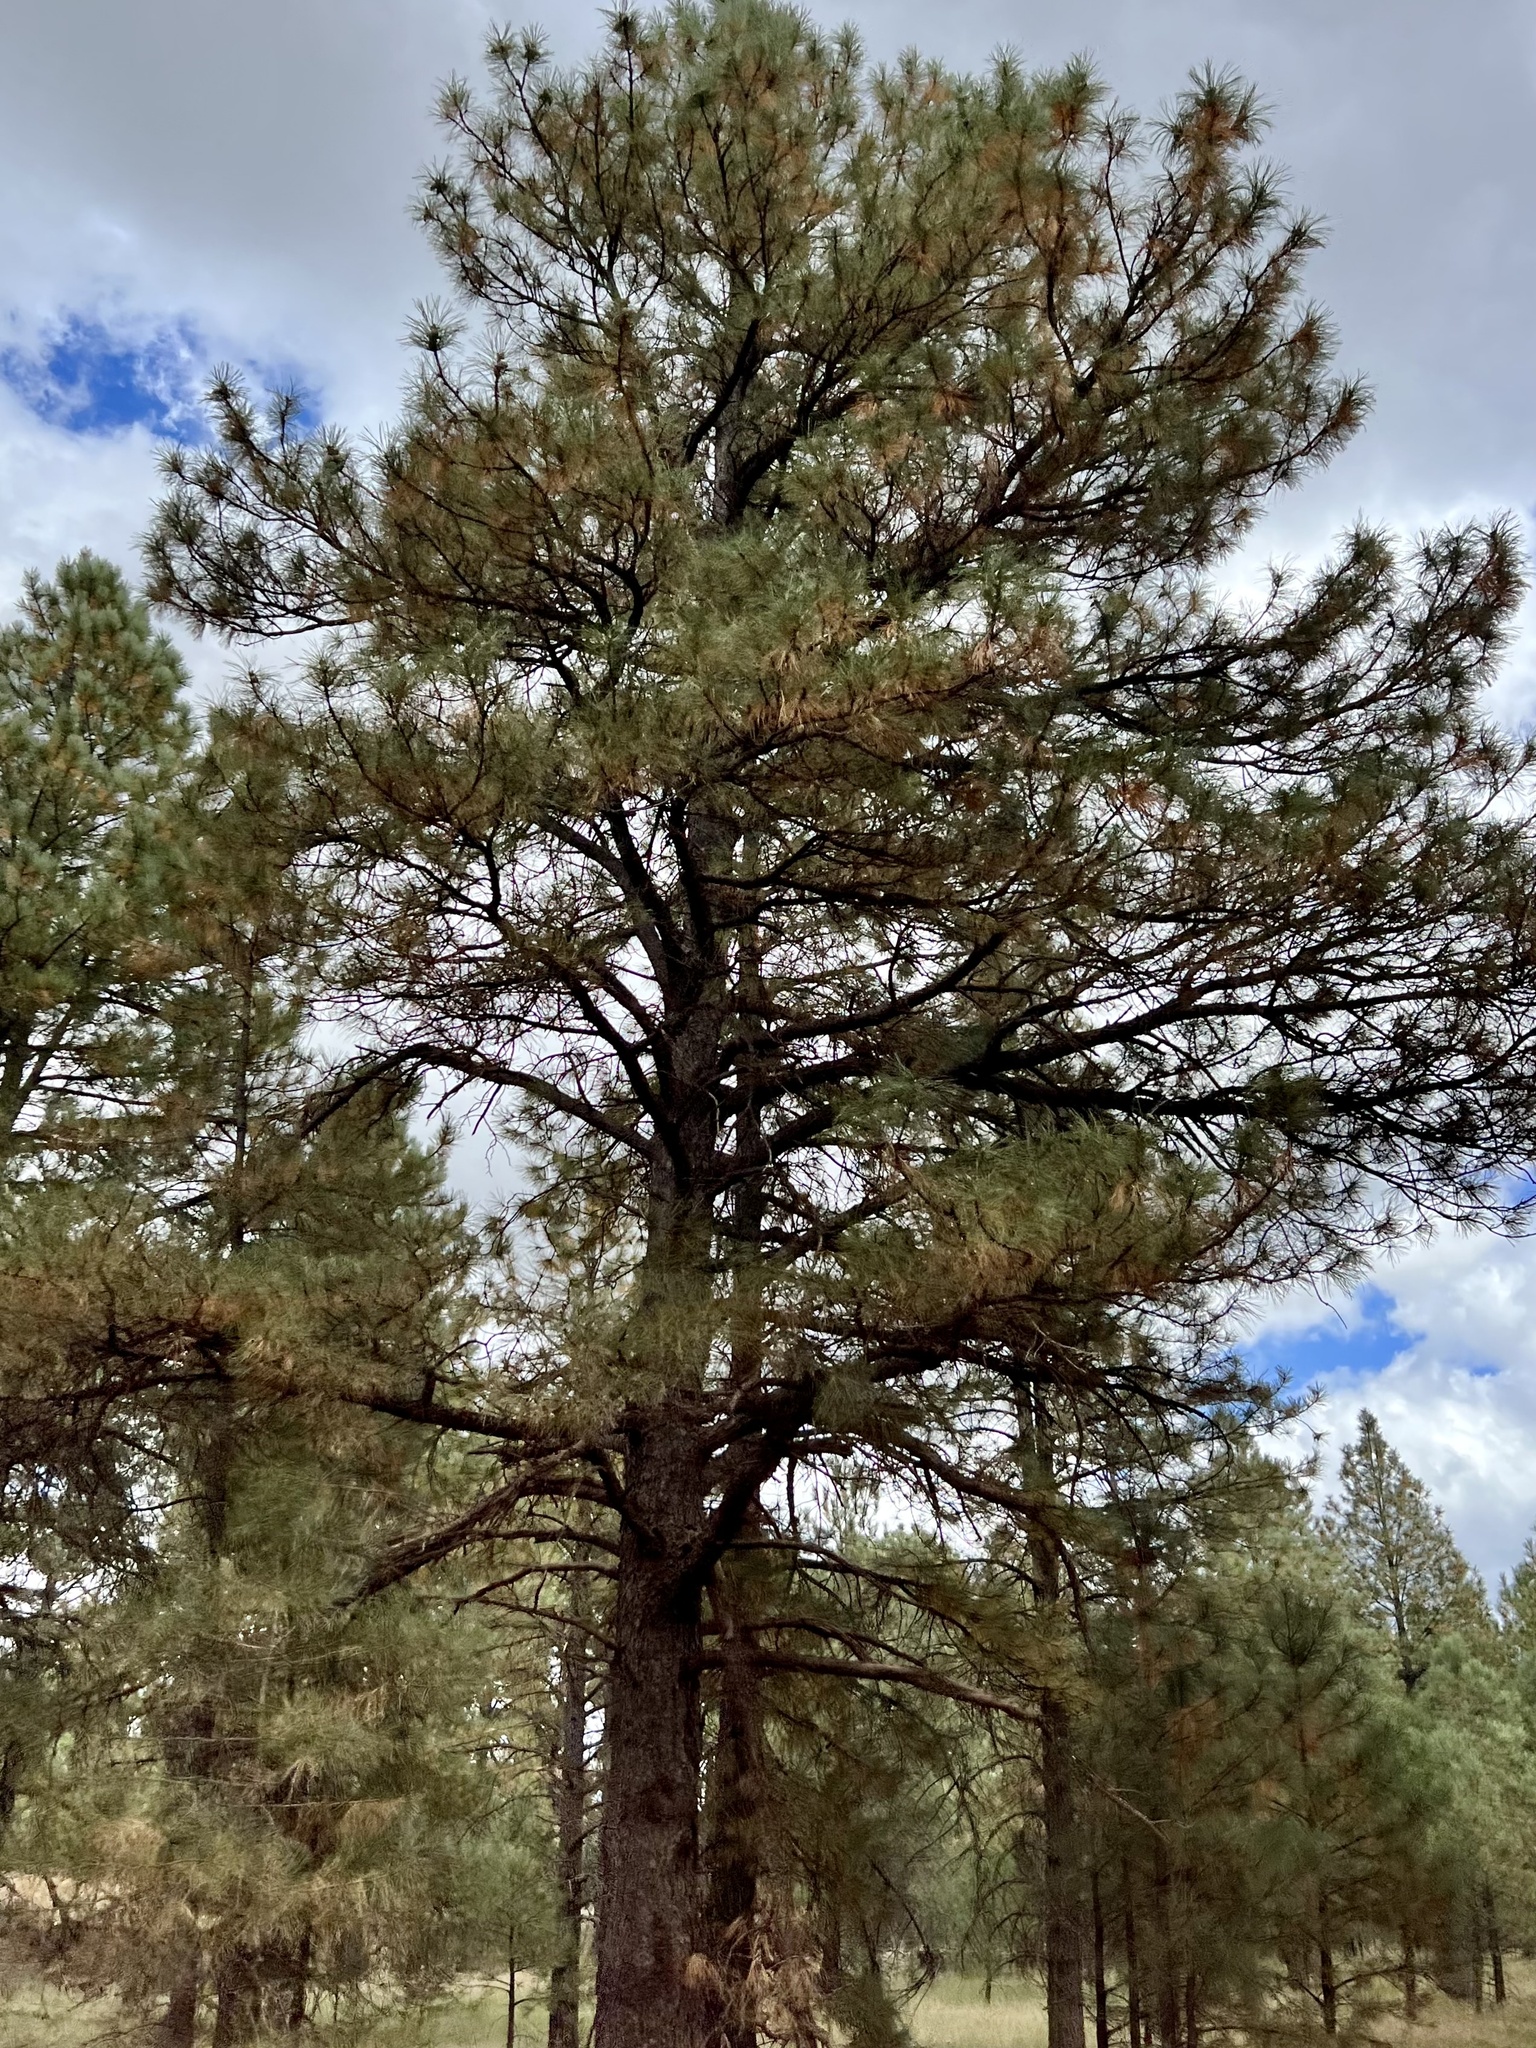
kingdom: Plantae
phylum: Tracheophyta
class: Pinopsida
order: Pinales
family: Pinaceae
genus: Pinus
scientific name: Pinus ponderosa
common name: Western yellow-pine
